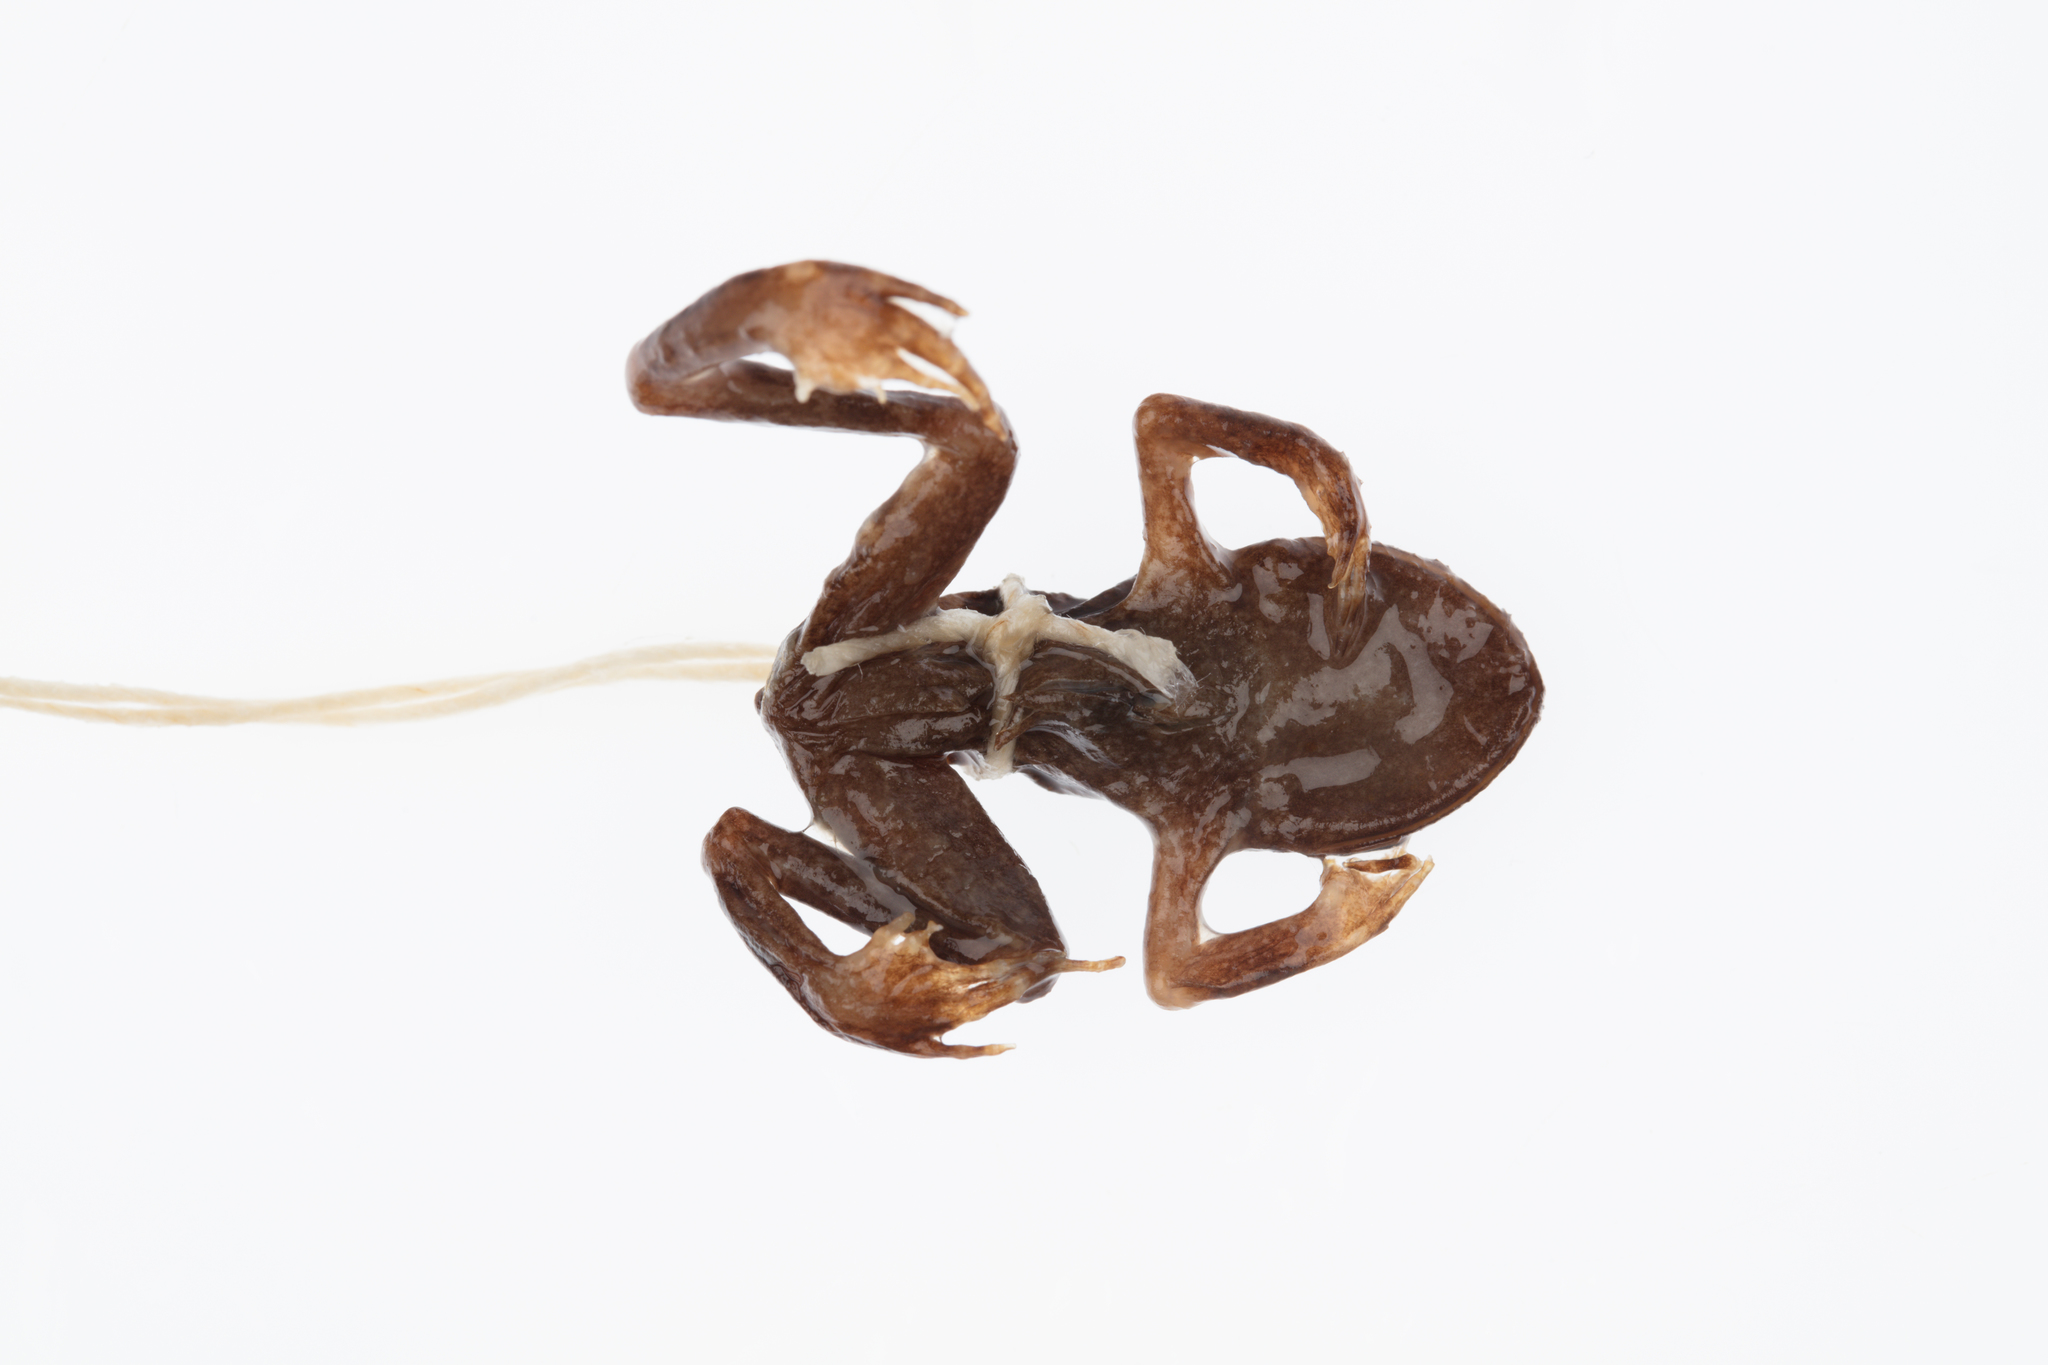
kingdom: Animalia
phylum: Chordata
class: Amphibia
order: Anura
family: Leiopelmatidae
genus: Leiopelma
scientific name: Leiopelma archeyi
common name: Archey's frog
